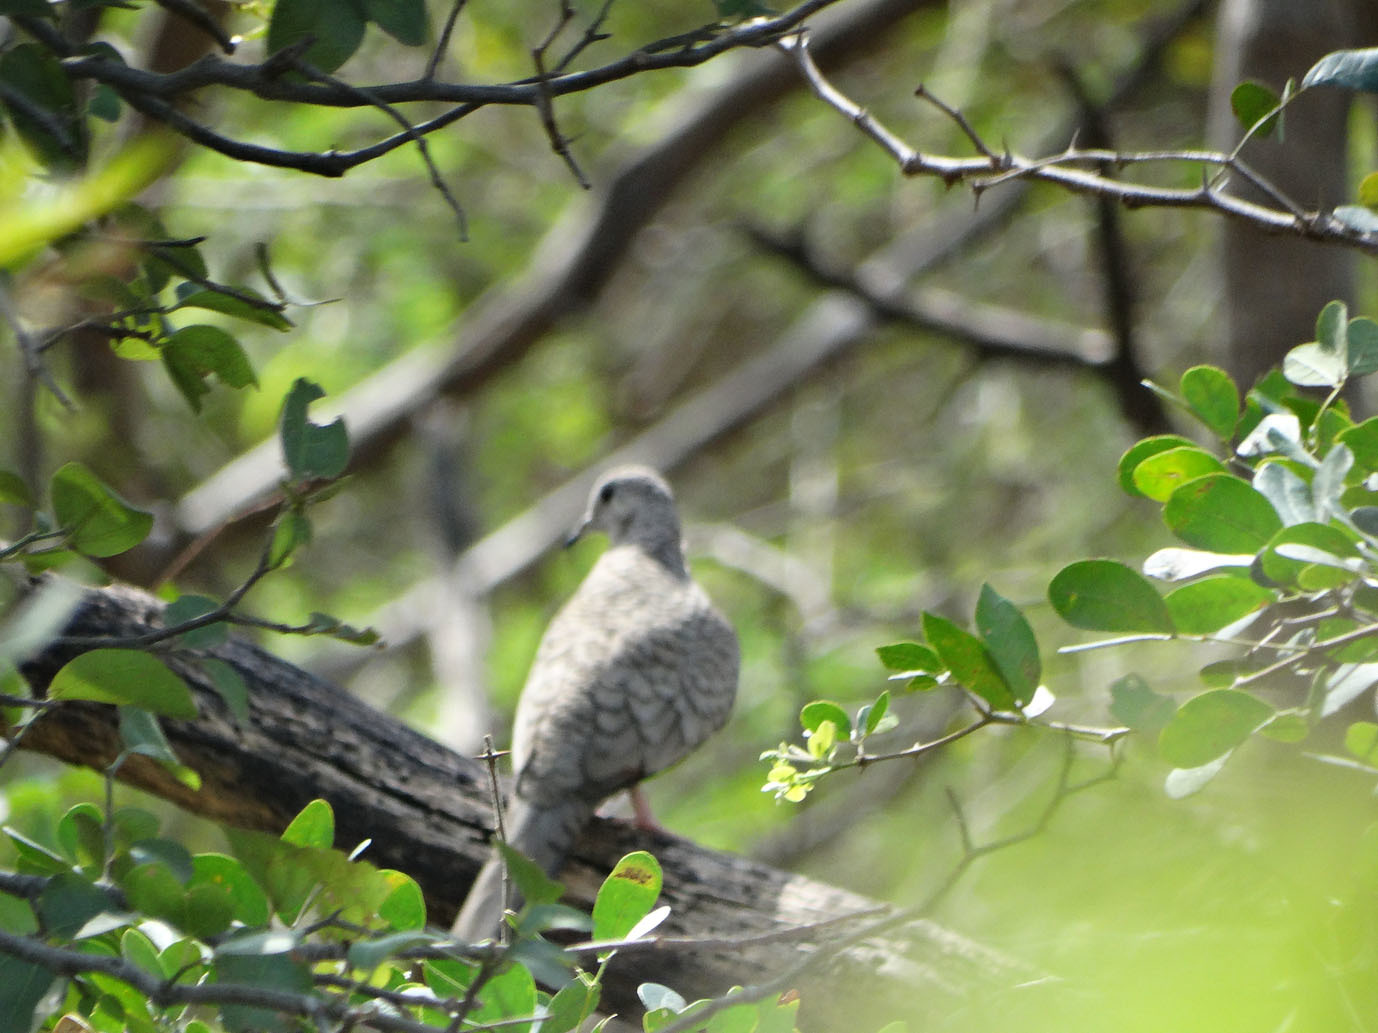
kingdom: Animalia
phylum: Chordata
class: Aves
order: Columbiformes
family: Columbidae
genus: Columbina
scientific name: Columbina inca
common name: Inca dove
